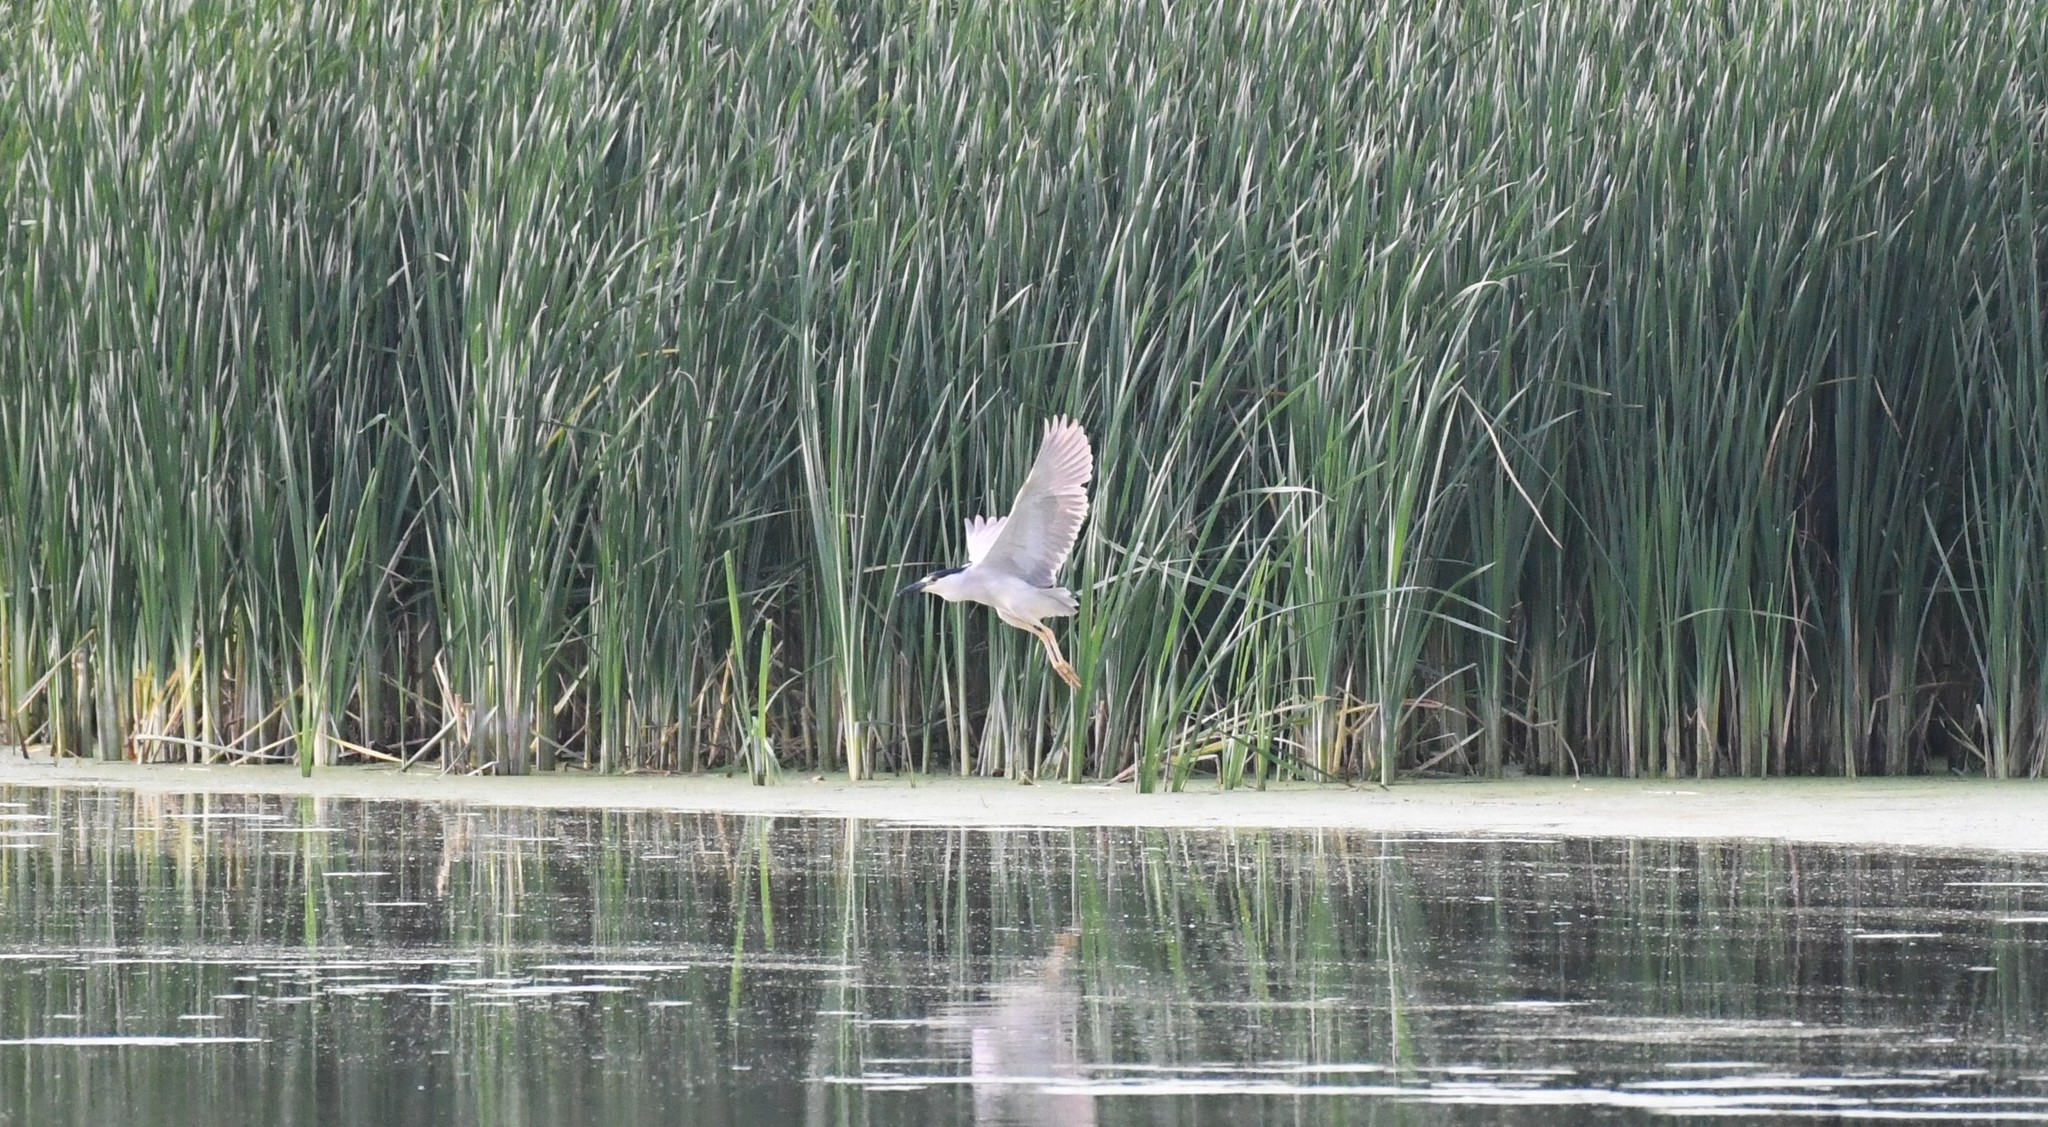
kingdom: Animalia
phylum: Chordata
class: Aves
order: Pelecaniformes
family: Ardeidae
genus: Nycticorax
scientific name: Nycticorax nycticorax
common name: Black-crowned night heron
